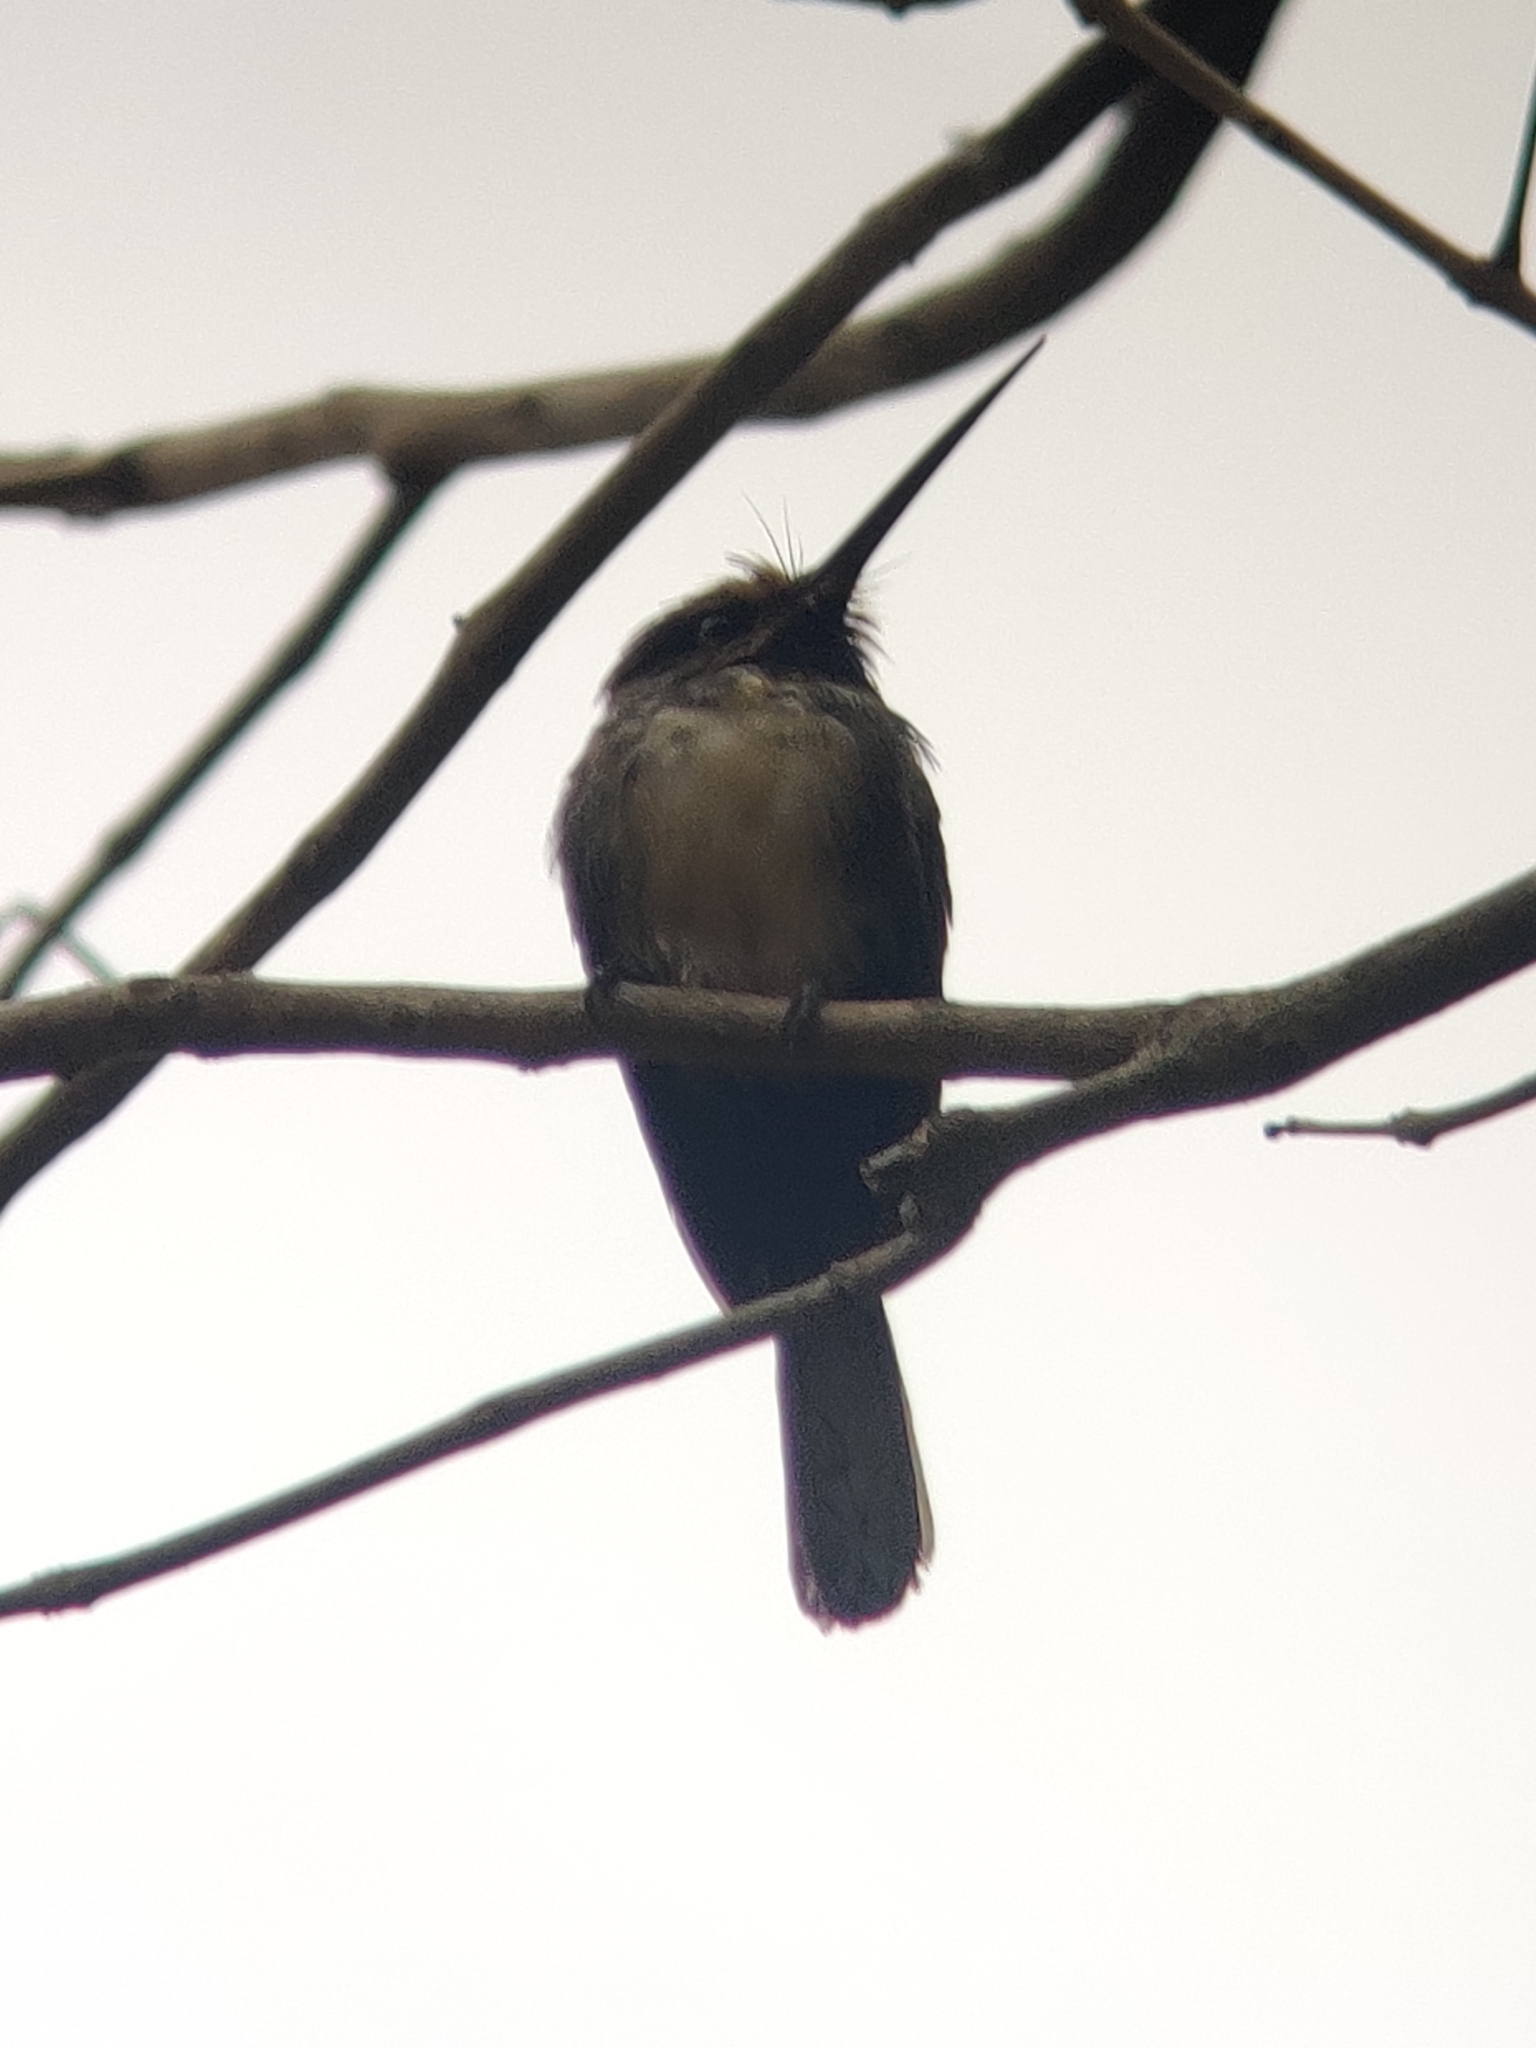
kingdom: Animalia
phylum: Chordata
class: Aves
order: Piciformes
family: Galbulidae
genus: Jacamaralcyon
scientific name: Jacamaralcyon tridactyla
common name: Three-toed jacamar
